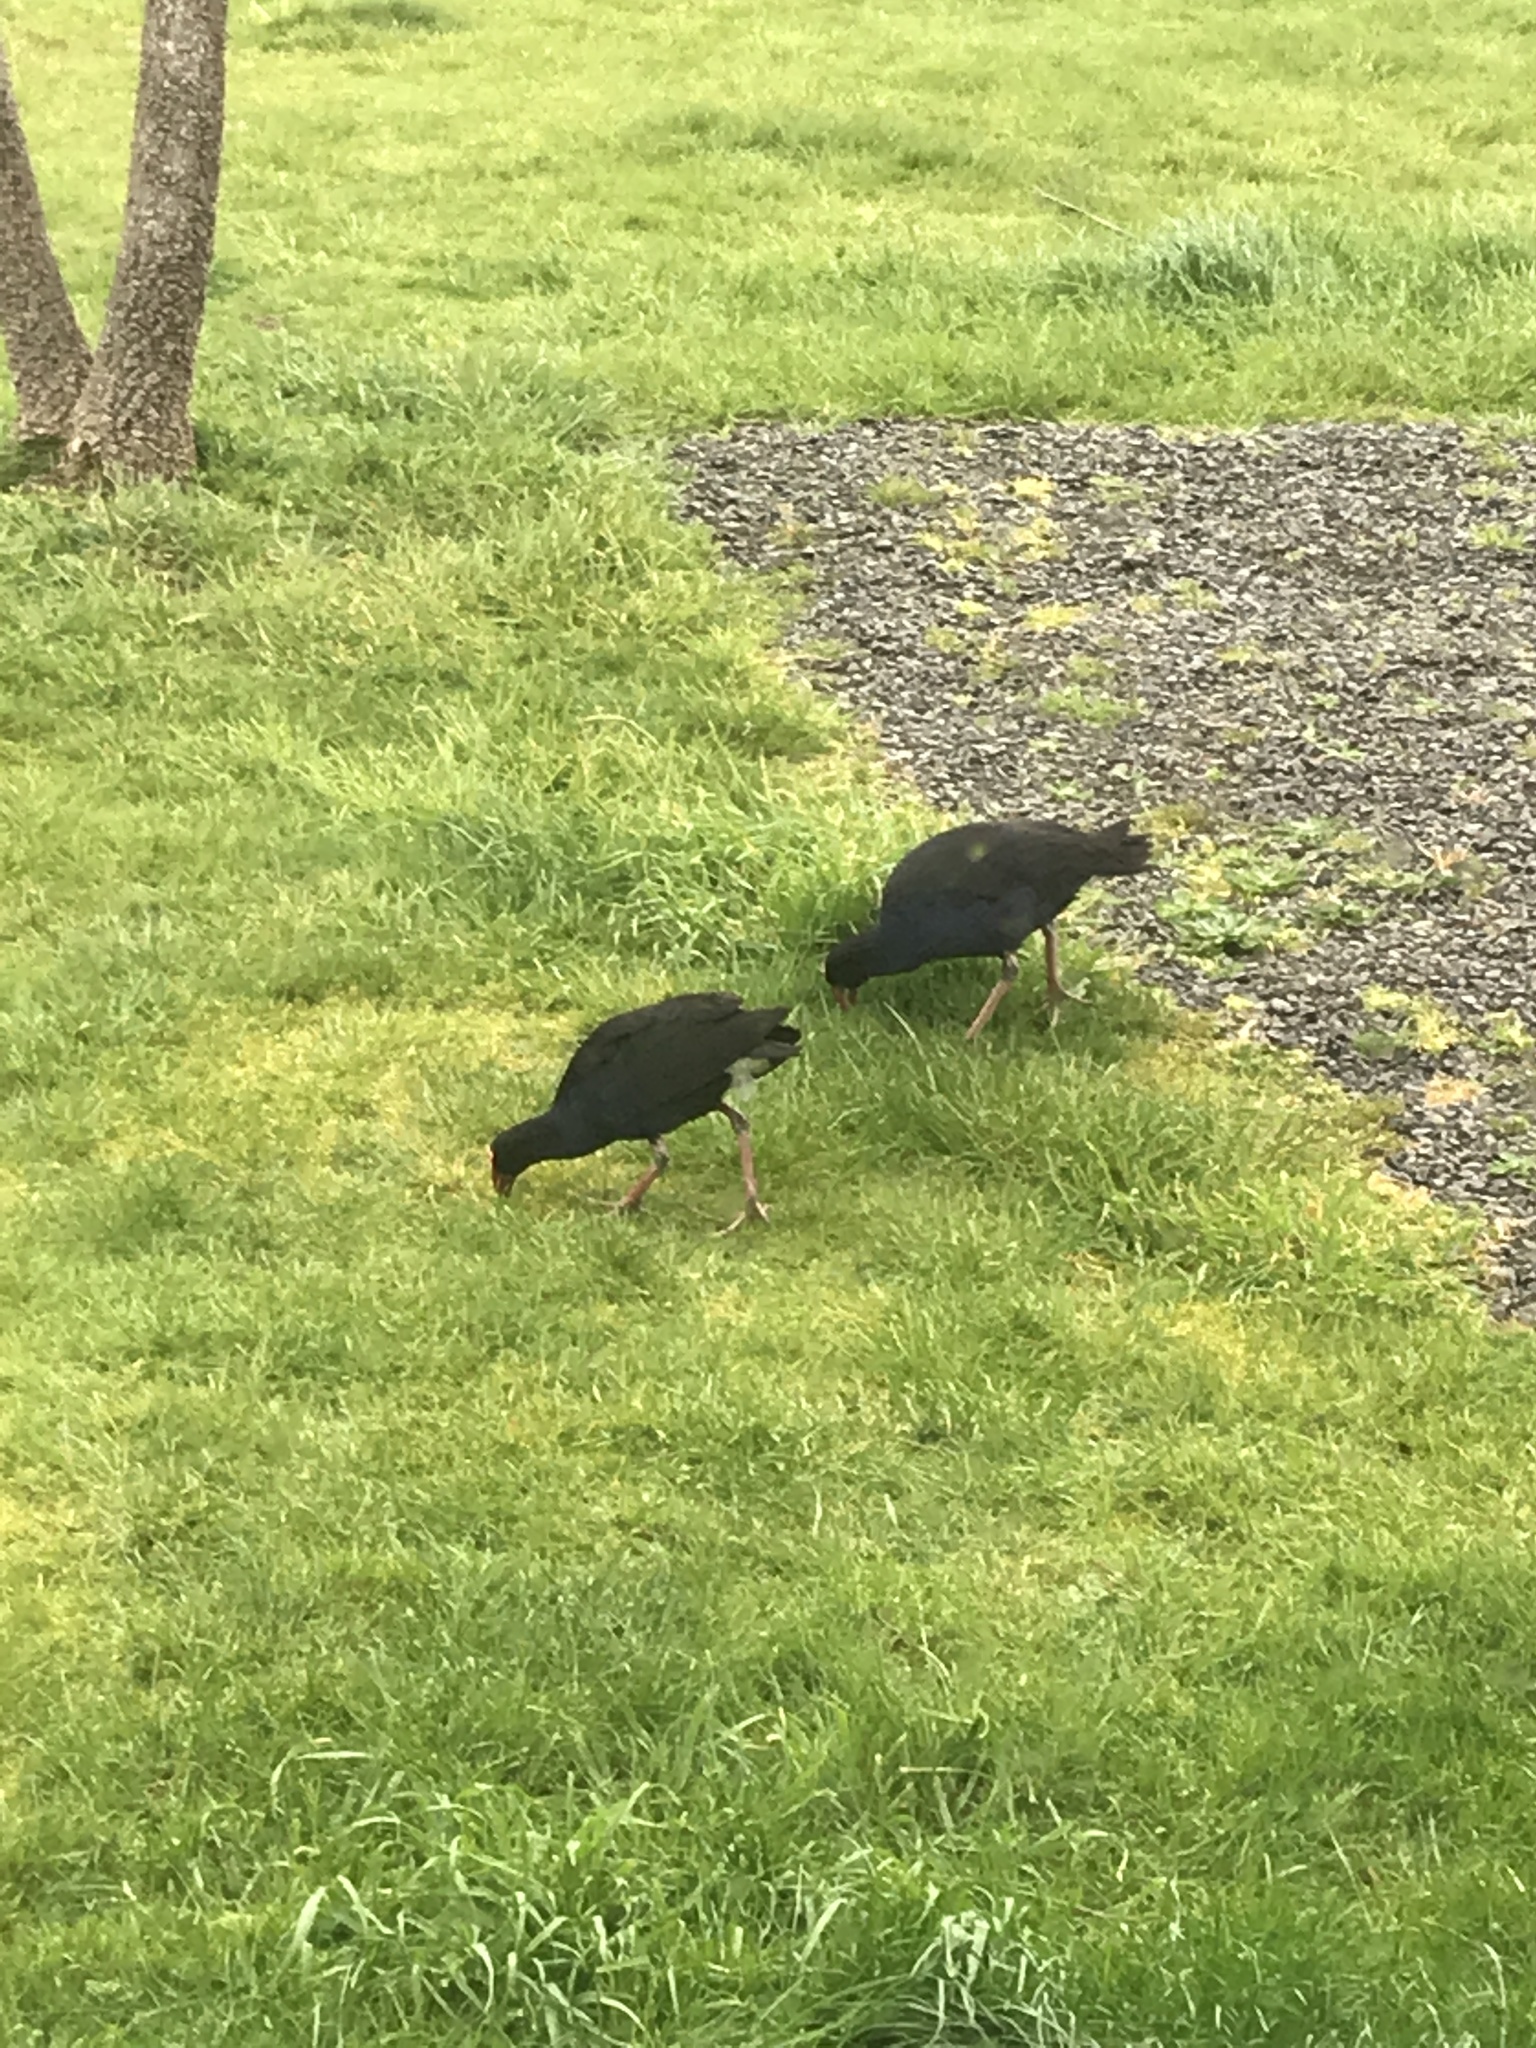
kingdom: Animalia
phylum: Chordata
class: Aves
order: Gruiformes
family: Rallidae
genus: Porphyrio
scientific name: Porphyrio melanotus
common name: Australasian swamphen
